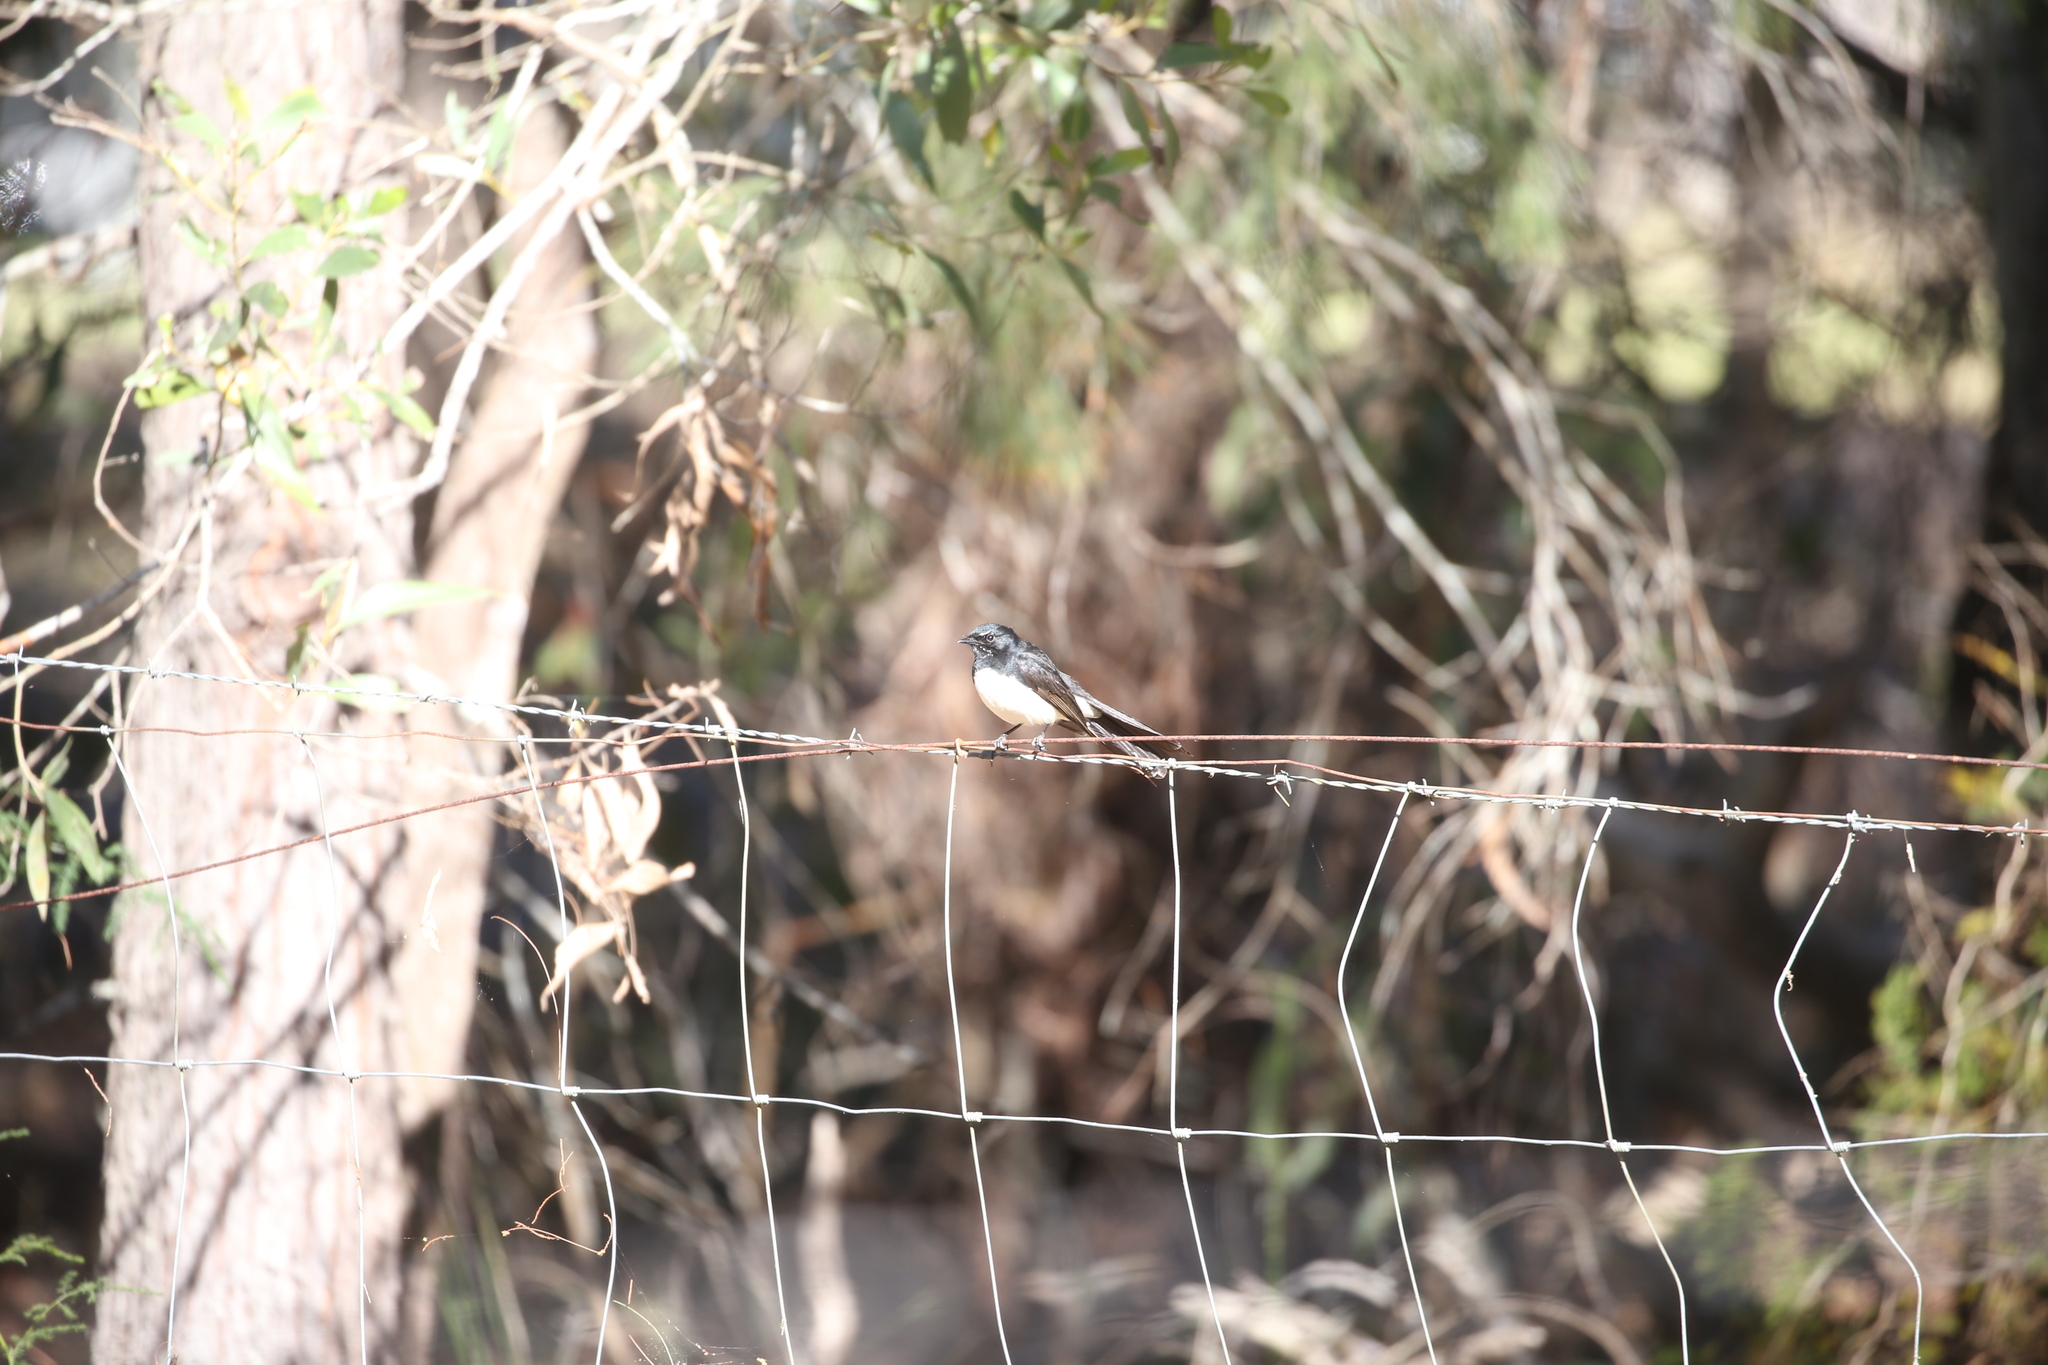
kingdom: Animalia
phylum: Chordata
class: Aves
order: Passeriformes
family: Rhipiduridae
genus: Rhipidura
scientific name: Rhipidura leucophrys
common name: Willie wagtail
